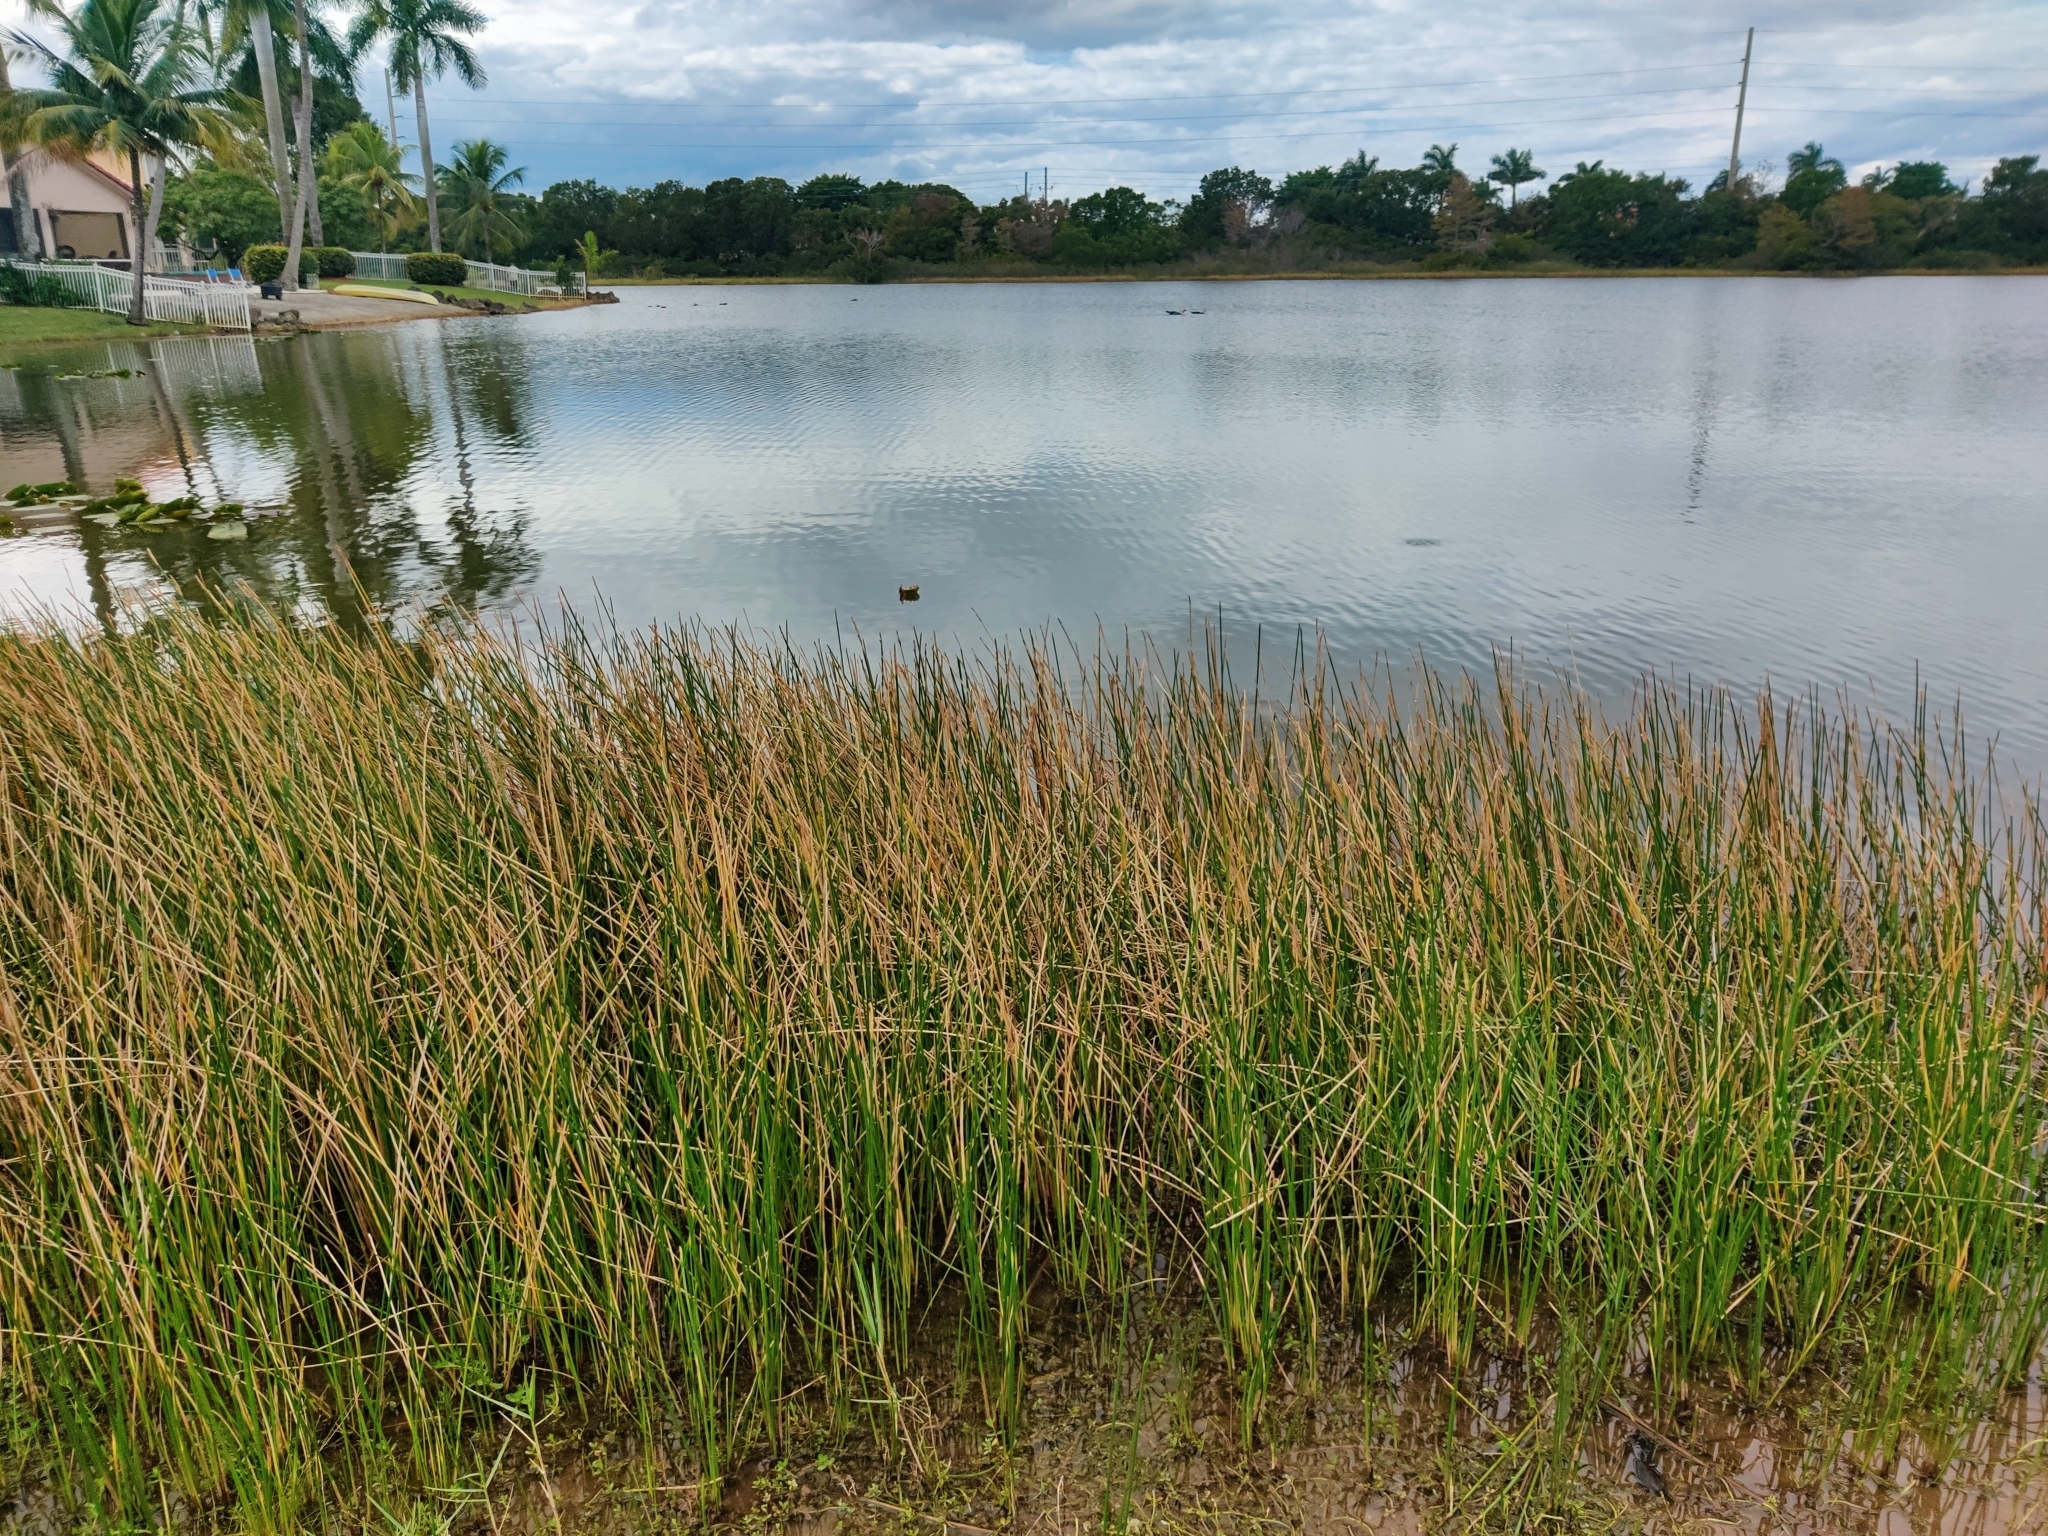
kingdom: Plantae
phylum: Tracheophyta
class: Liliopsida
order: Poales
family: Cyperaceae
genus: Eleocharis
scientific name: Eleocharis interstincta
